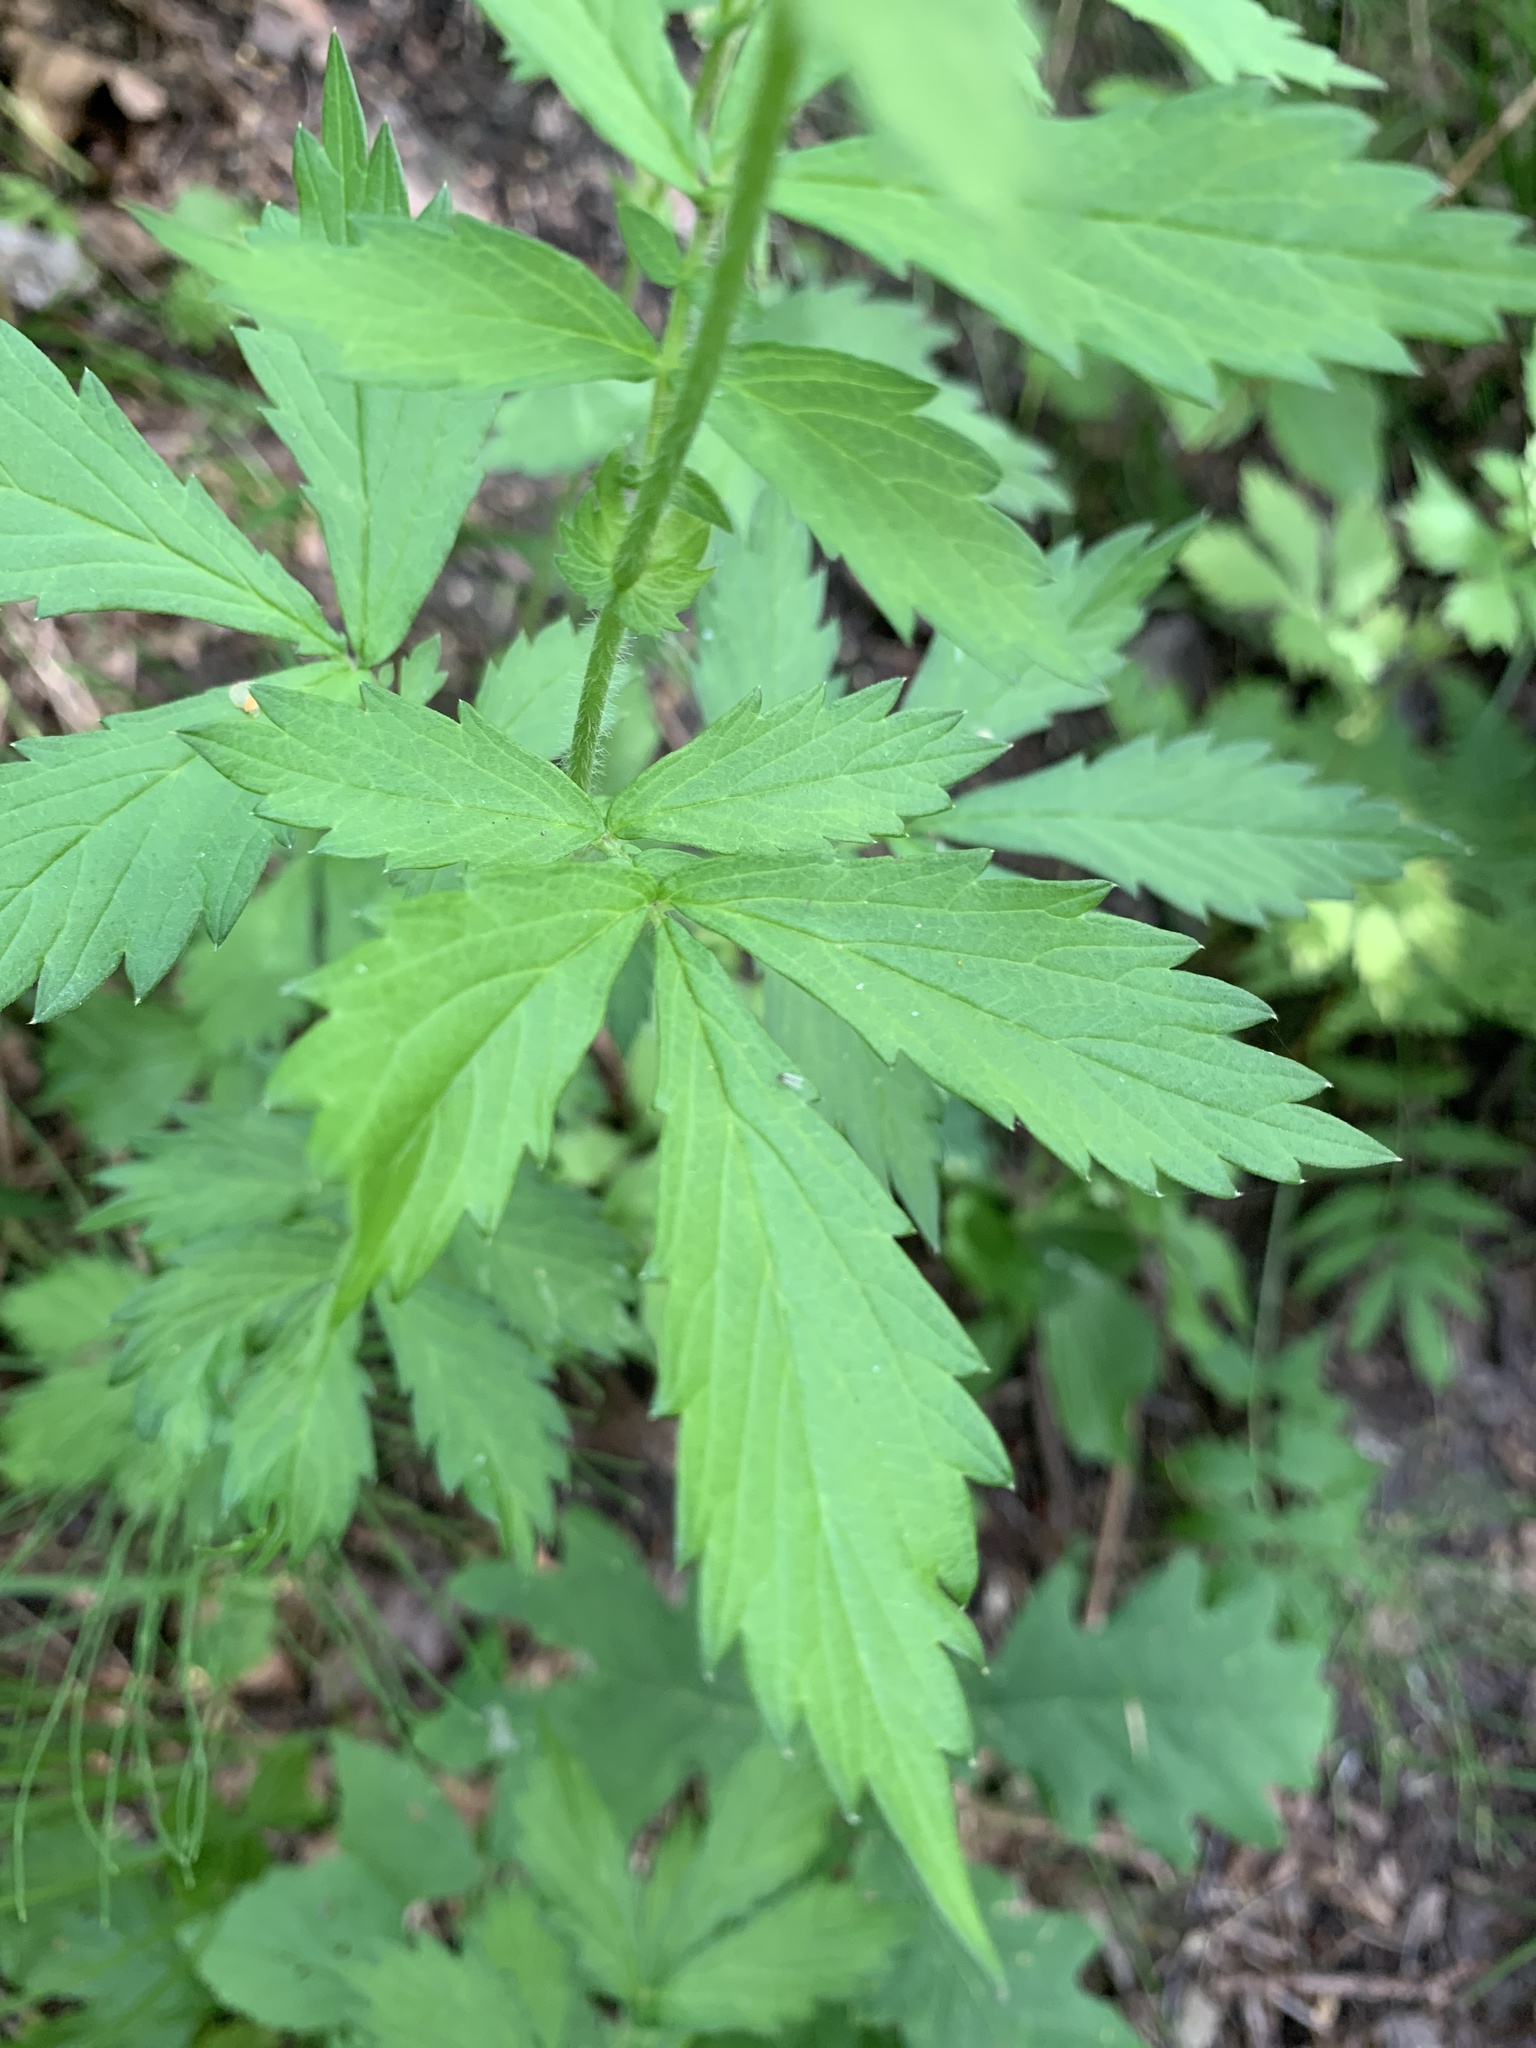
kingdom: Plantae
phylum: Tracheophyta
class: Magnoliopsida
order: Rosales
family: Rosaceae
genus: Agrimonia
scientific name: Agrimonia pilosa
